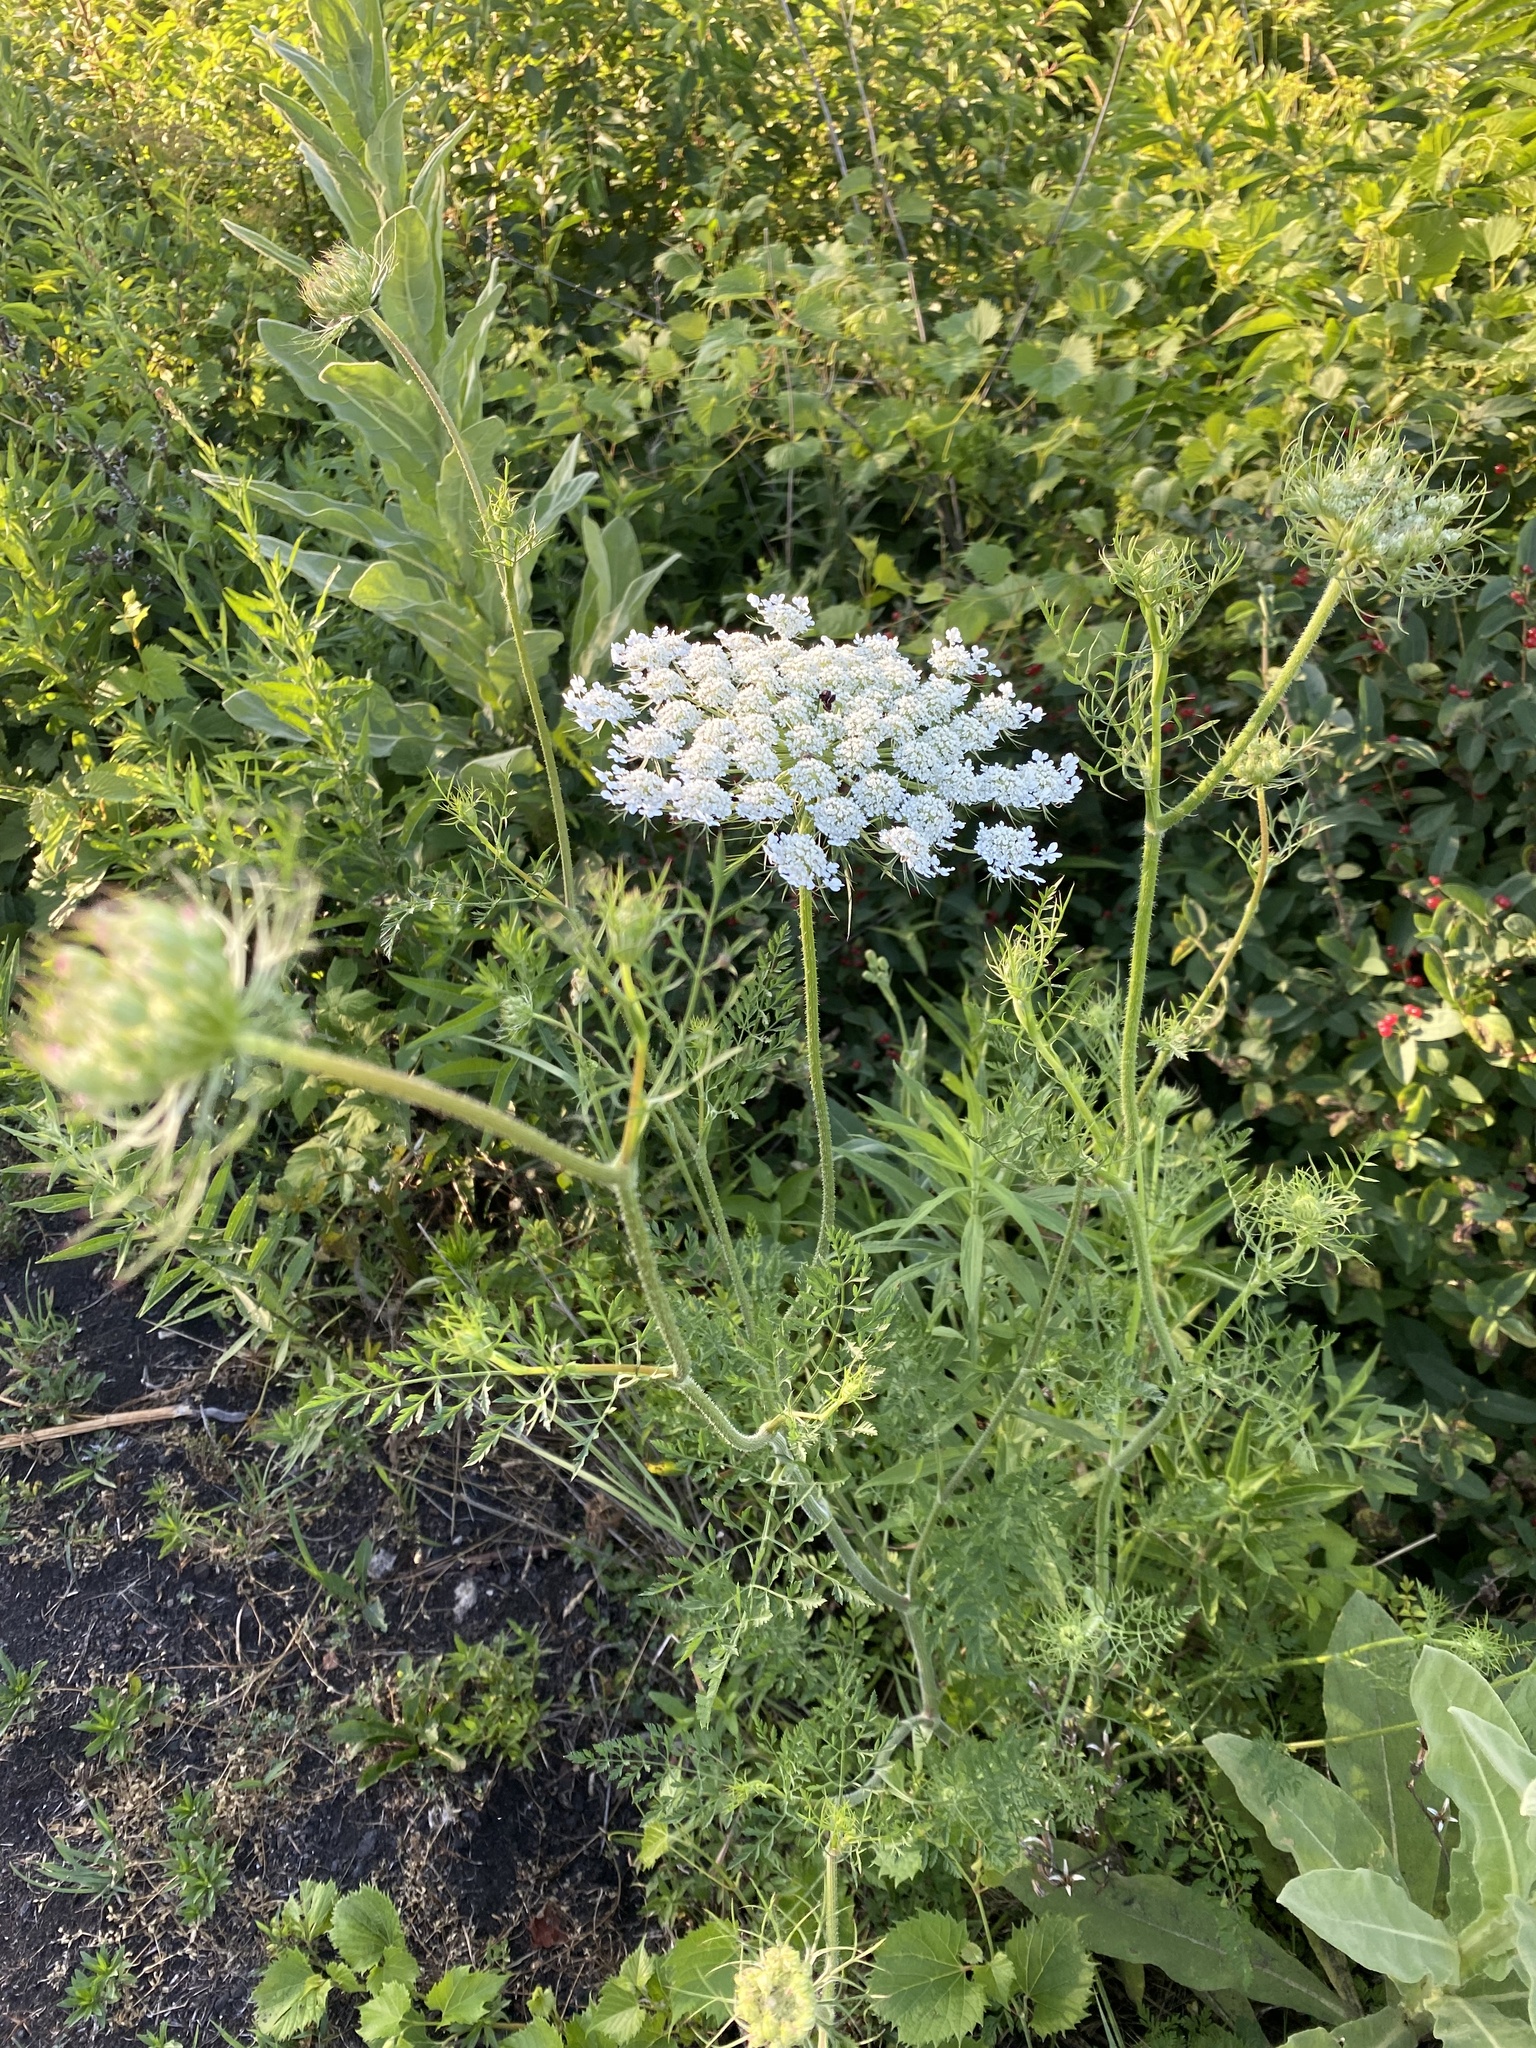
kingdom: Plantae
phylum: Tracheophyta
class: Magnoliopsida
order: Apiales
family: Apiaceae
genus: Daucus
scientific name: Daucus carota
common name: Wild carrot
